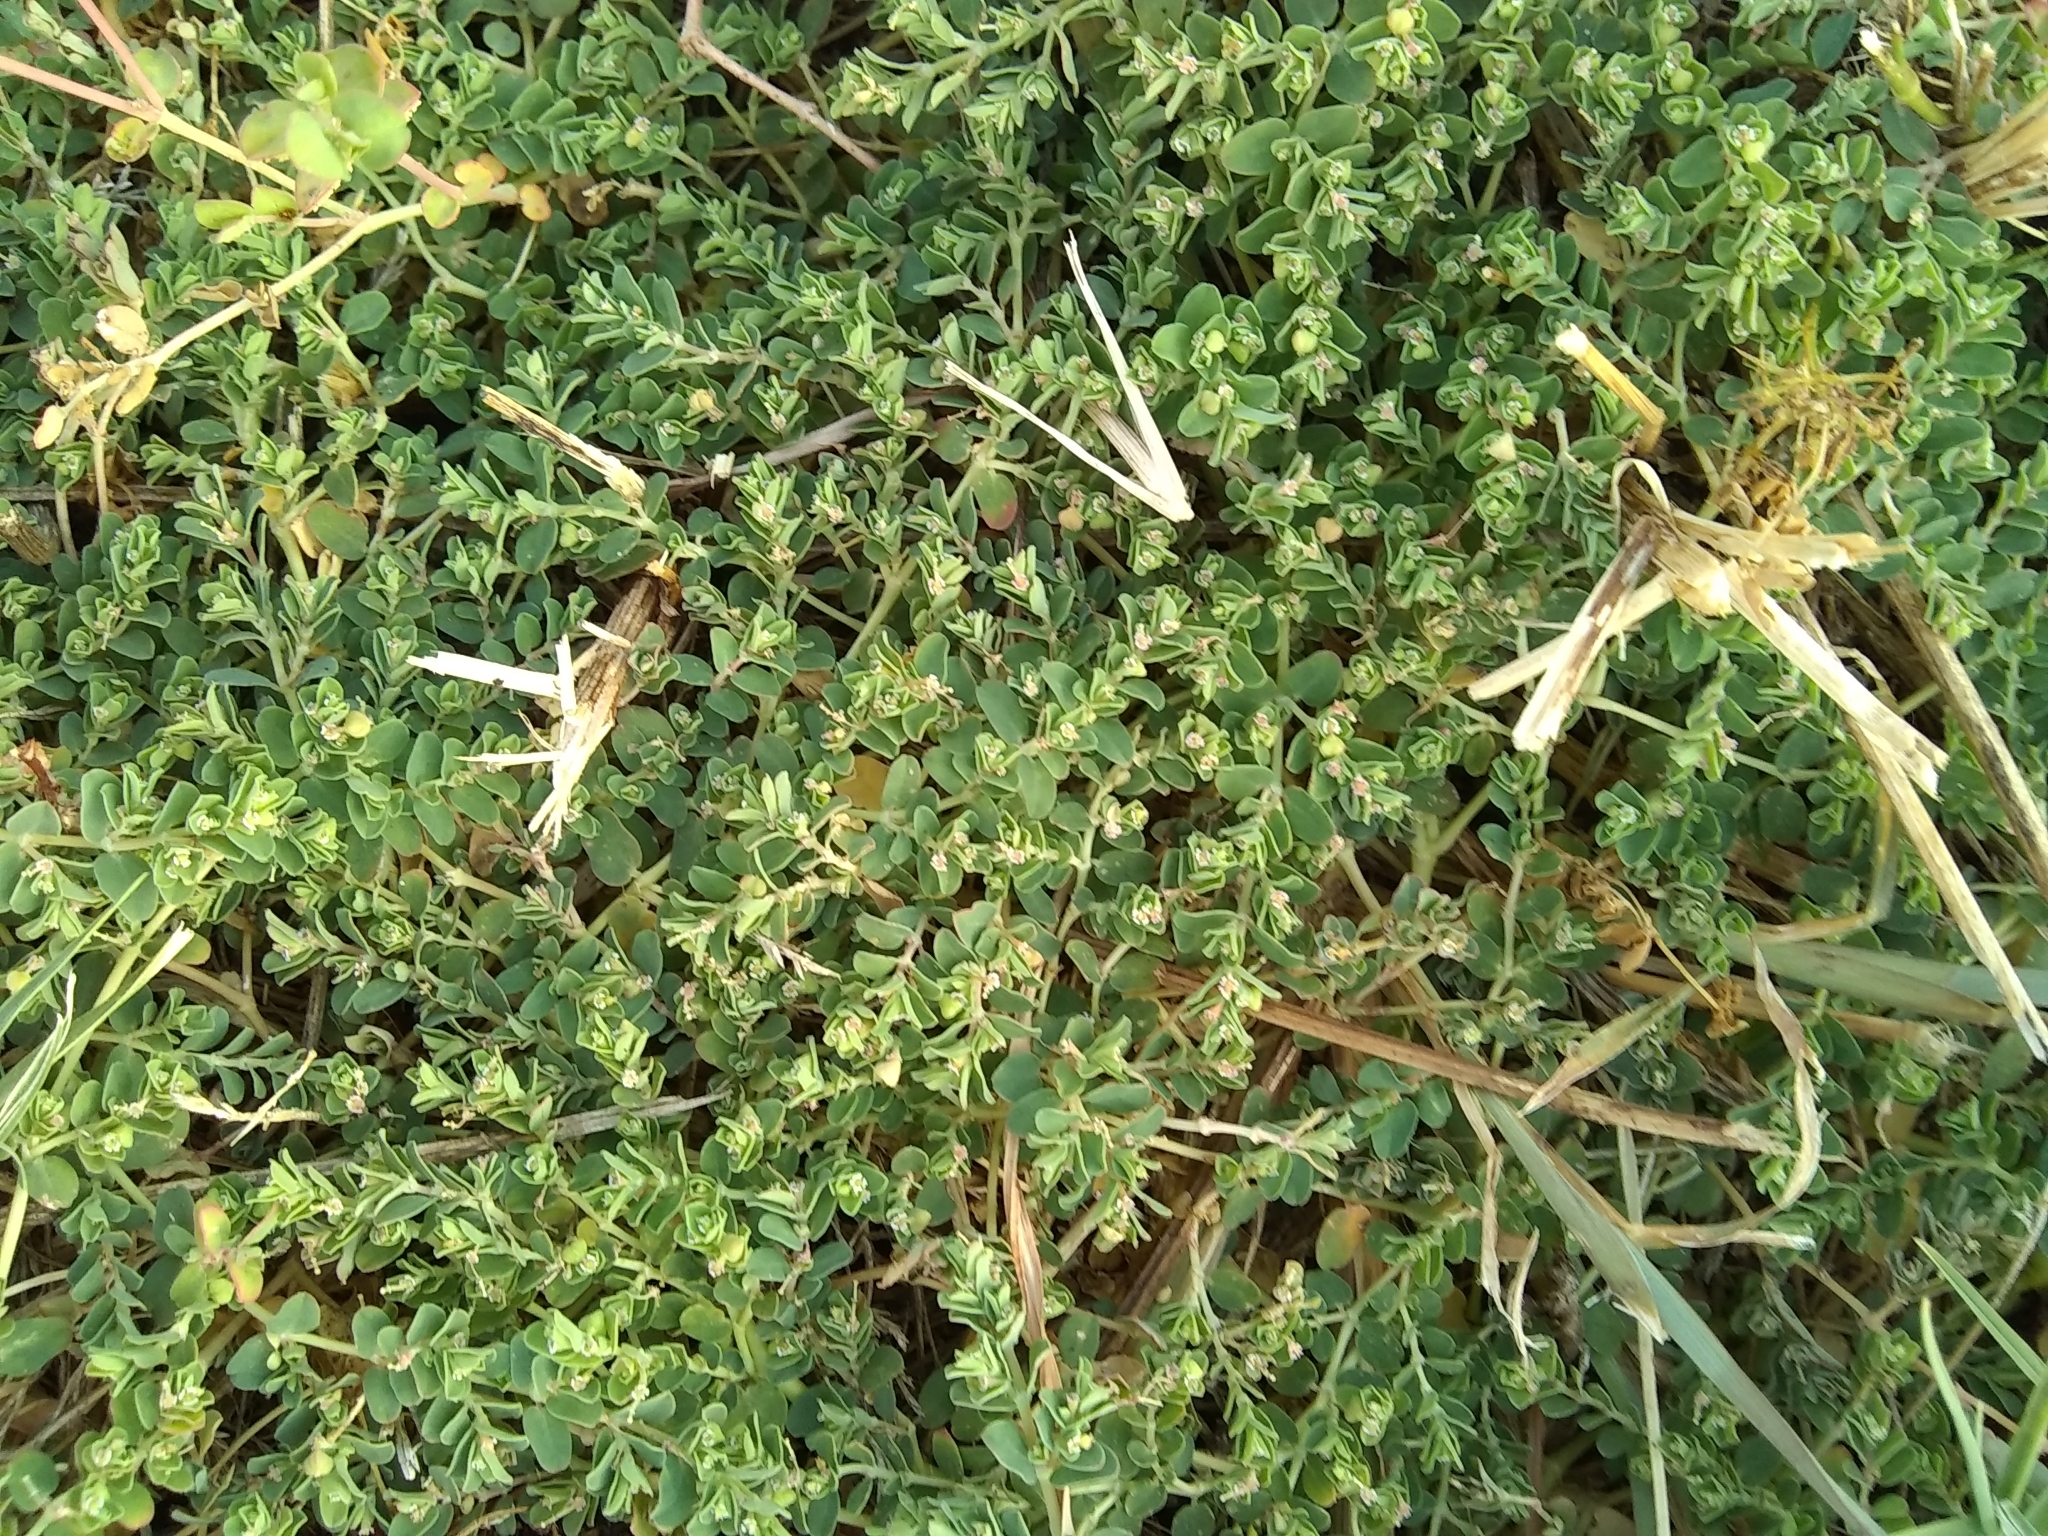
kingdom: Plantae
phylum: Tracheophyta
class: Magnoliopsida
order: Malpighiales
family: Euphorbiaceae
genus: Euphorbia
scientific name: Euphorbia serpens
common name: Matted sandmat
